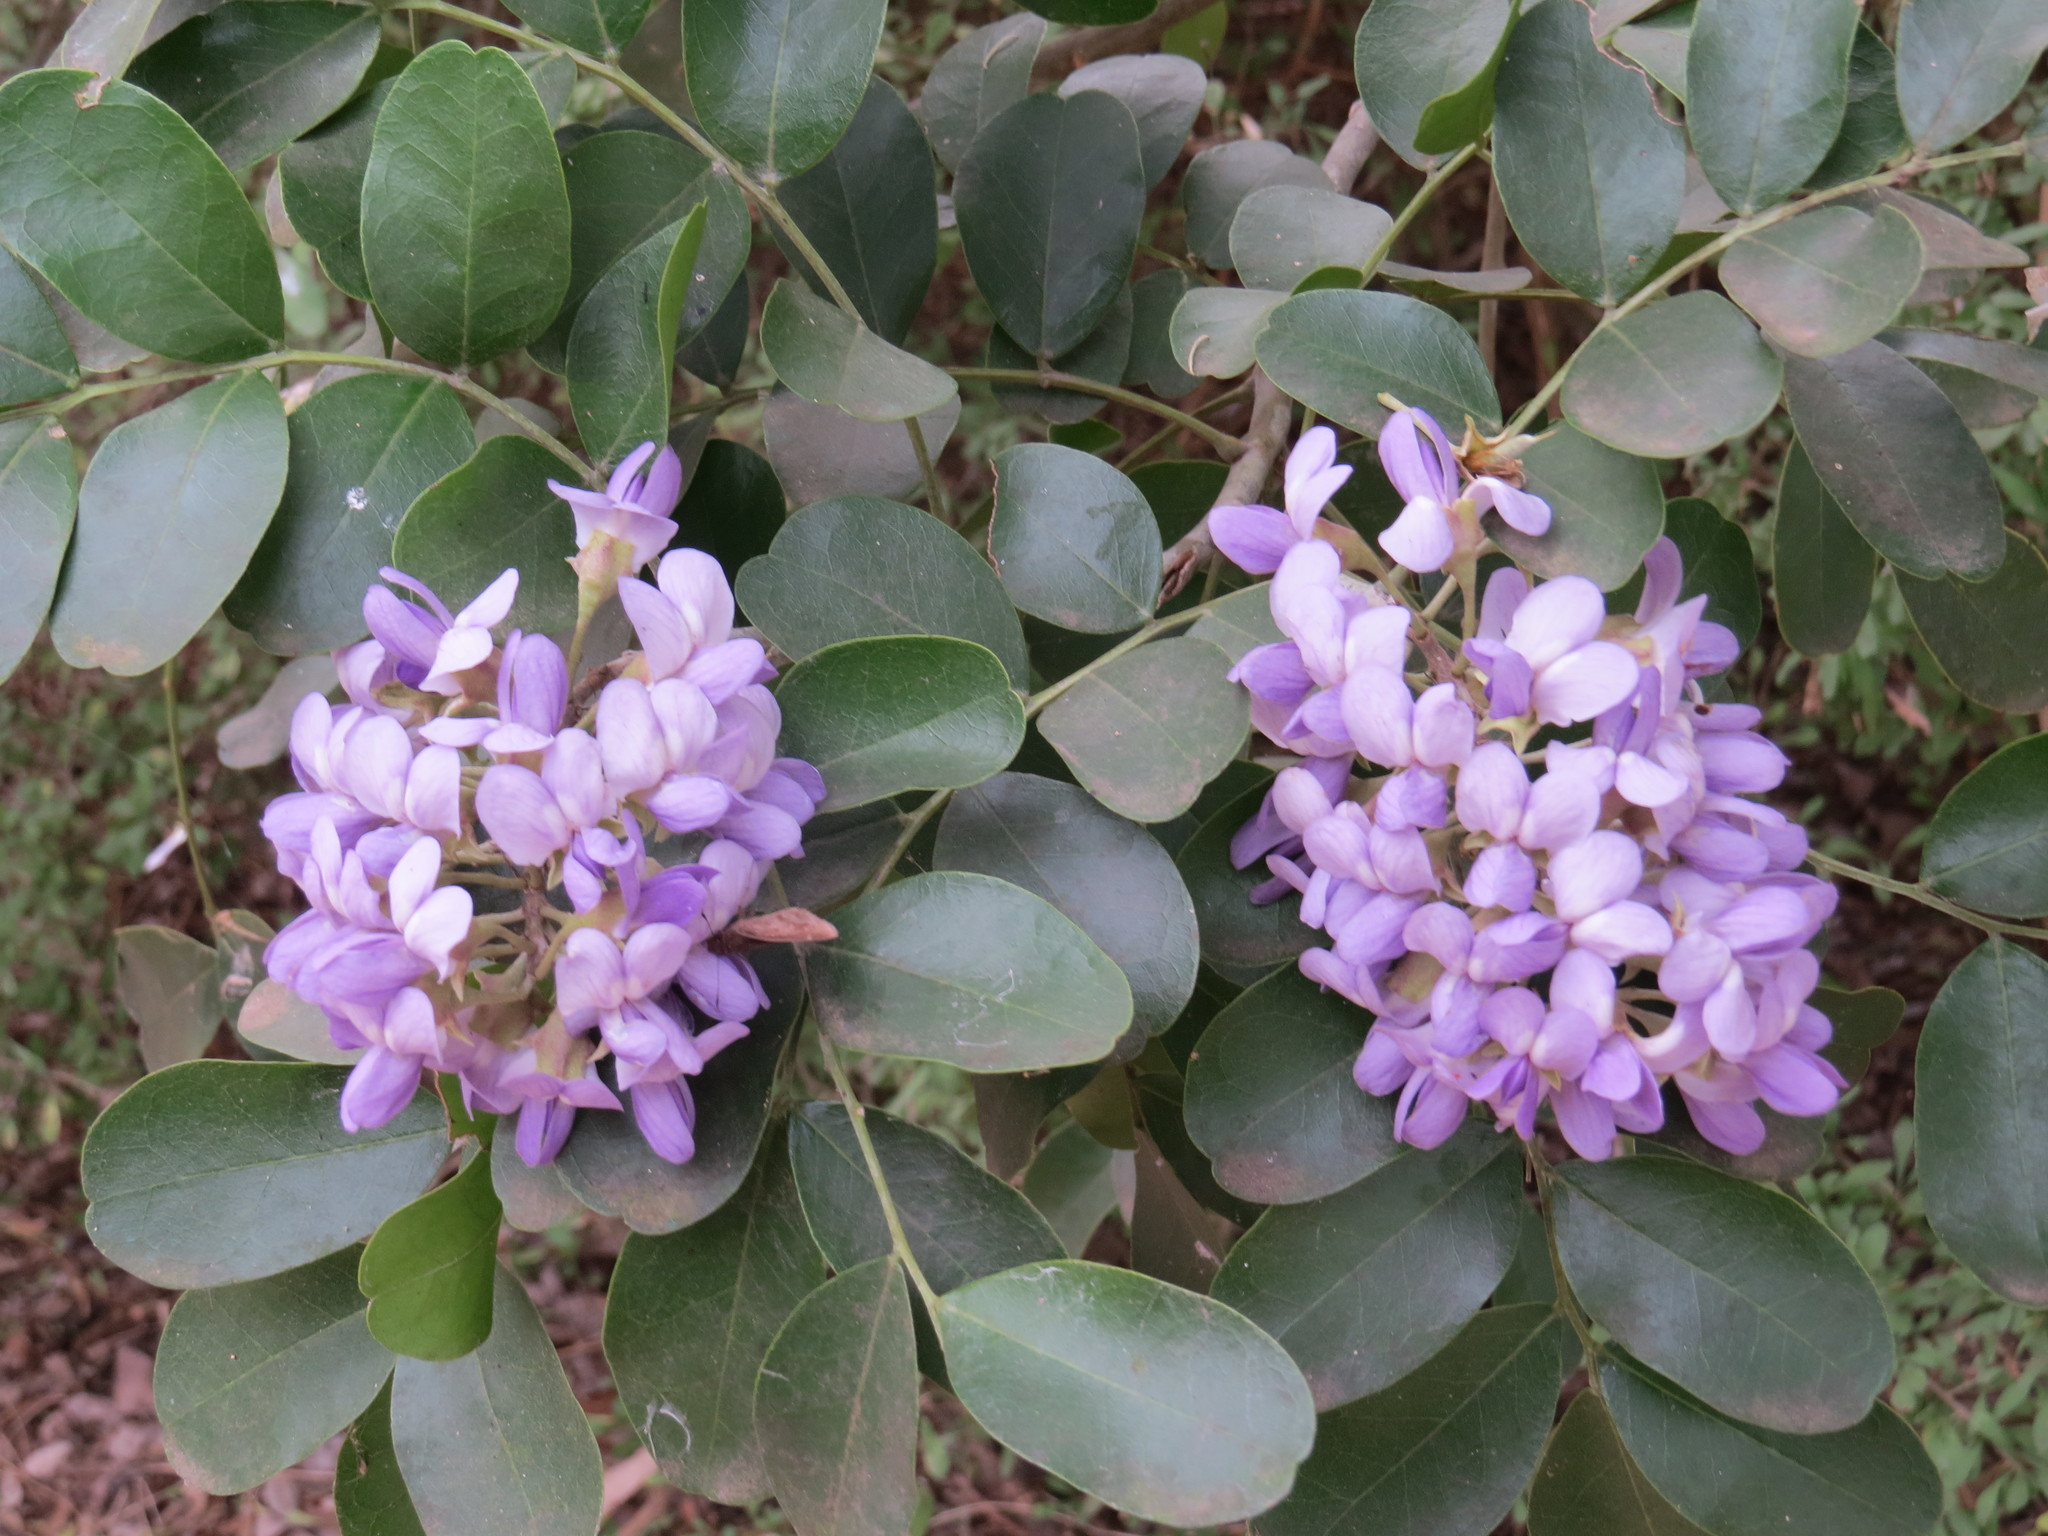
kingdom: Plantae
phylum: Tracheophyta
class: Magnoliopsida
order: Fabales
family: Fabaceae
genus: Dermatophyllum
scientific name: Dermatophyllum secundiflorum
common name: Texas-mountain-laurel
